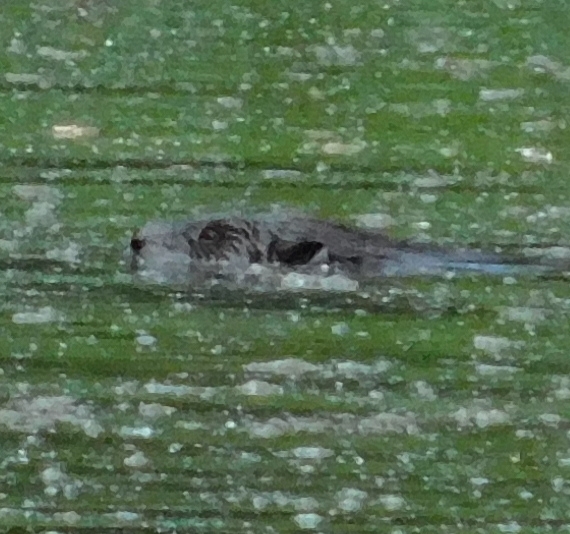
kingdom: Animalia
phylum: Chordata
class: Mammalia
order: Rodentia
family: Castoridae
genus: Castor
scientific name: Castor fiber
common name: Eurasian beaver
